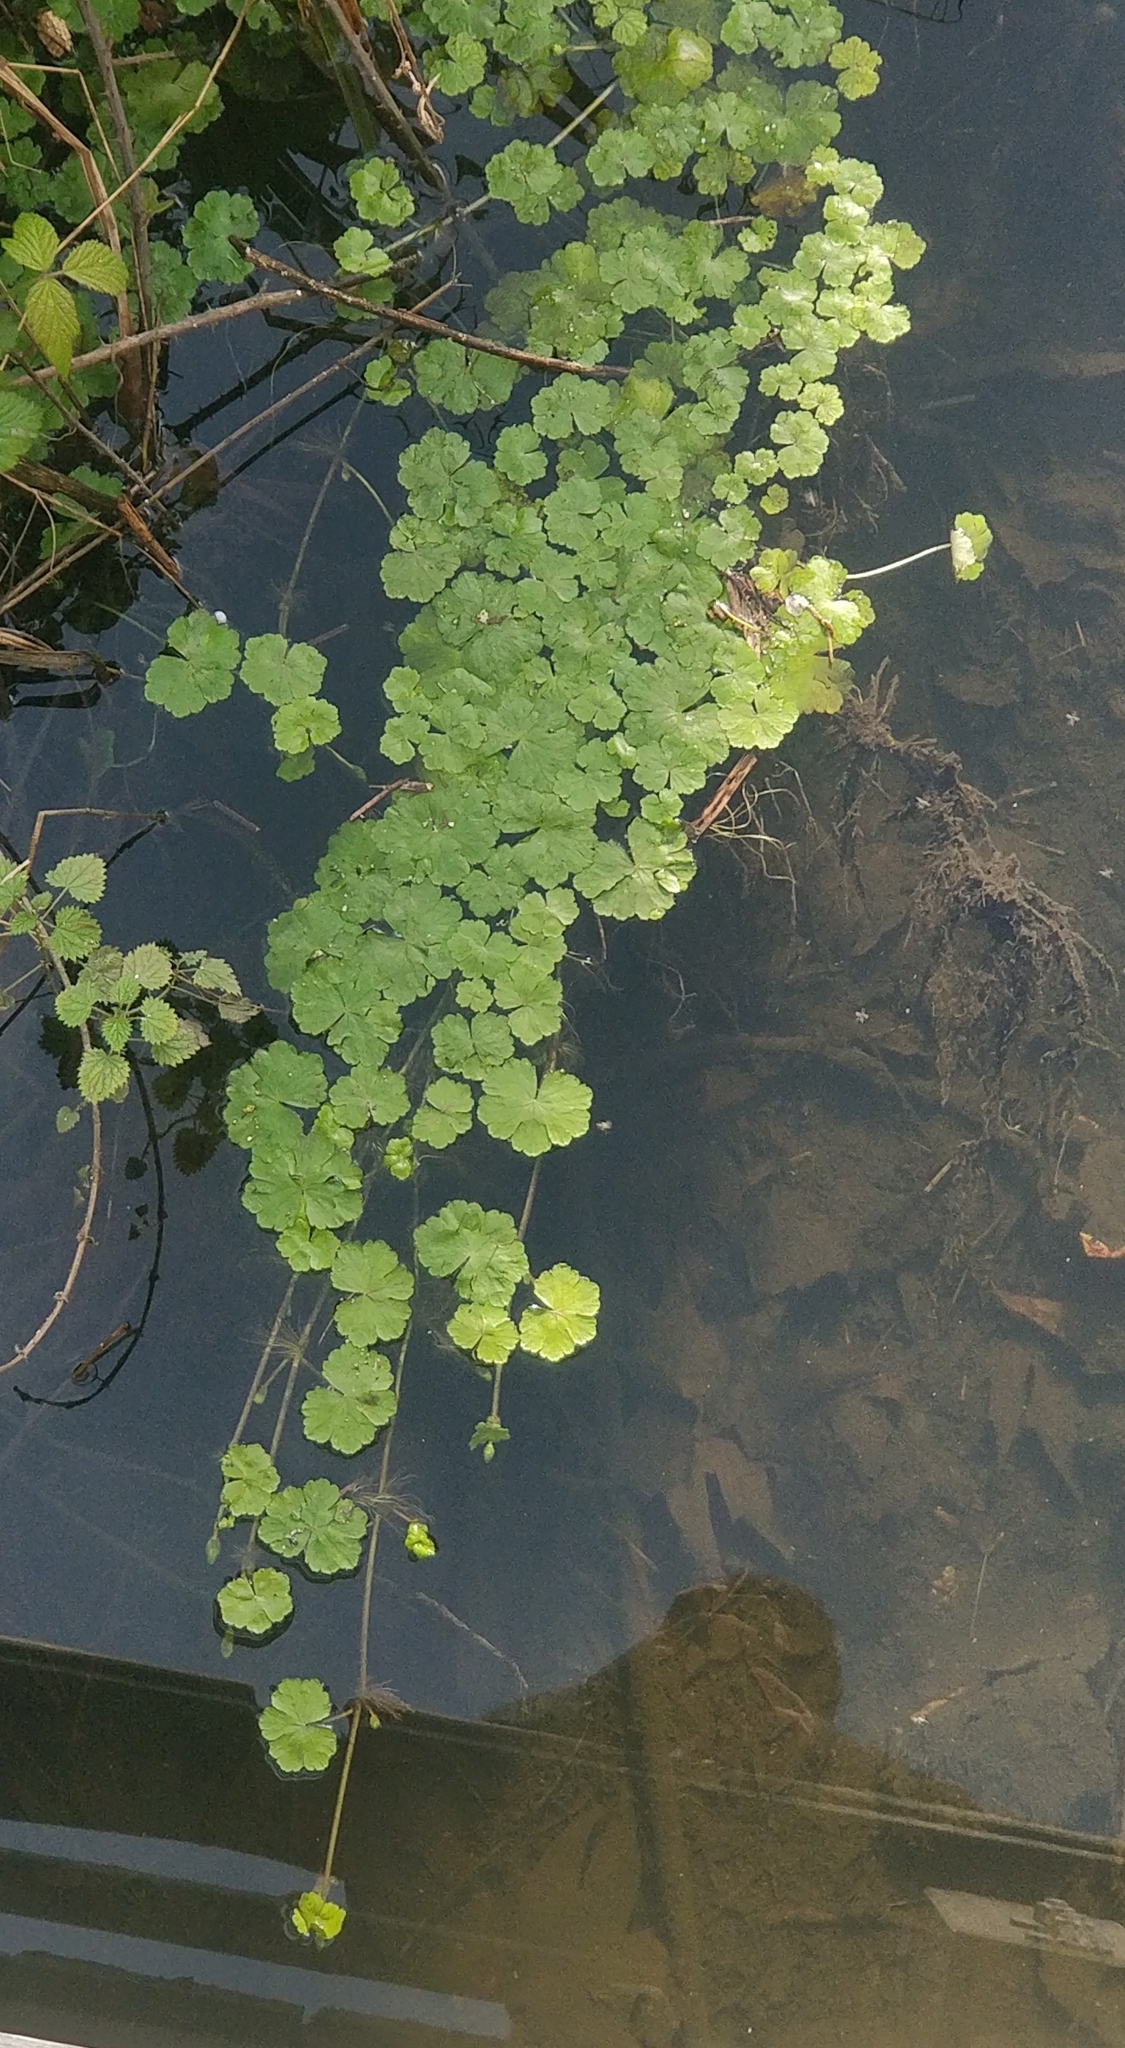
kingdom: Plantae
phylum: Tracheophyta
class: Magnoliopsida
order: Apiales
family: Araliaceae
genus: Hydrocotyle
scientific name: Hydrocotyle ranunculoides
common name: Floating pennywort
